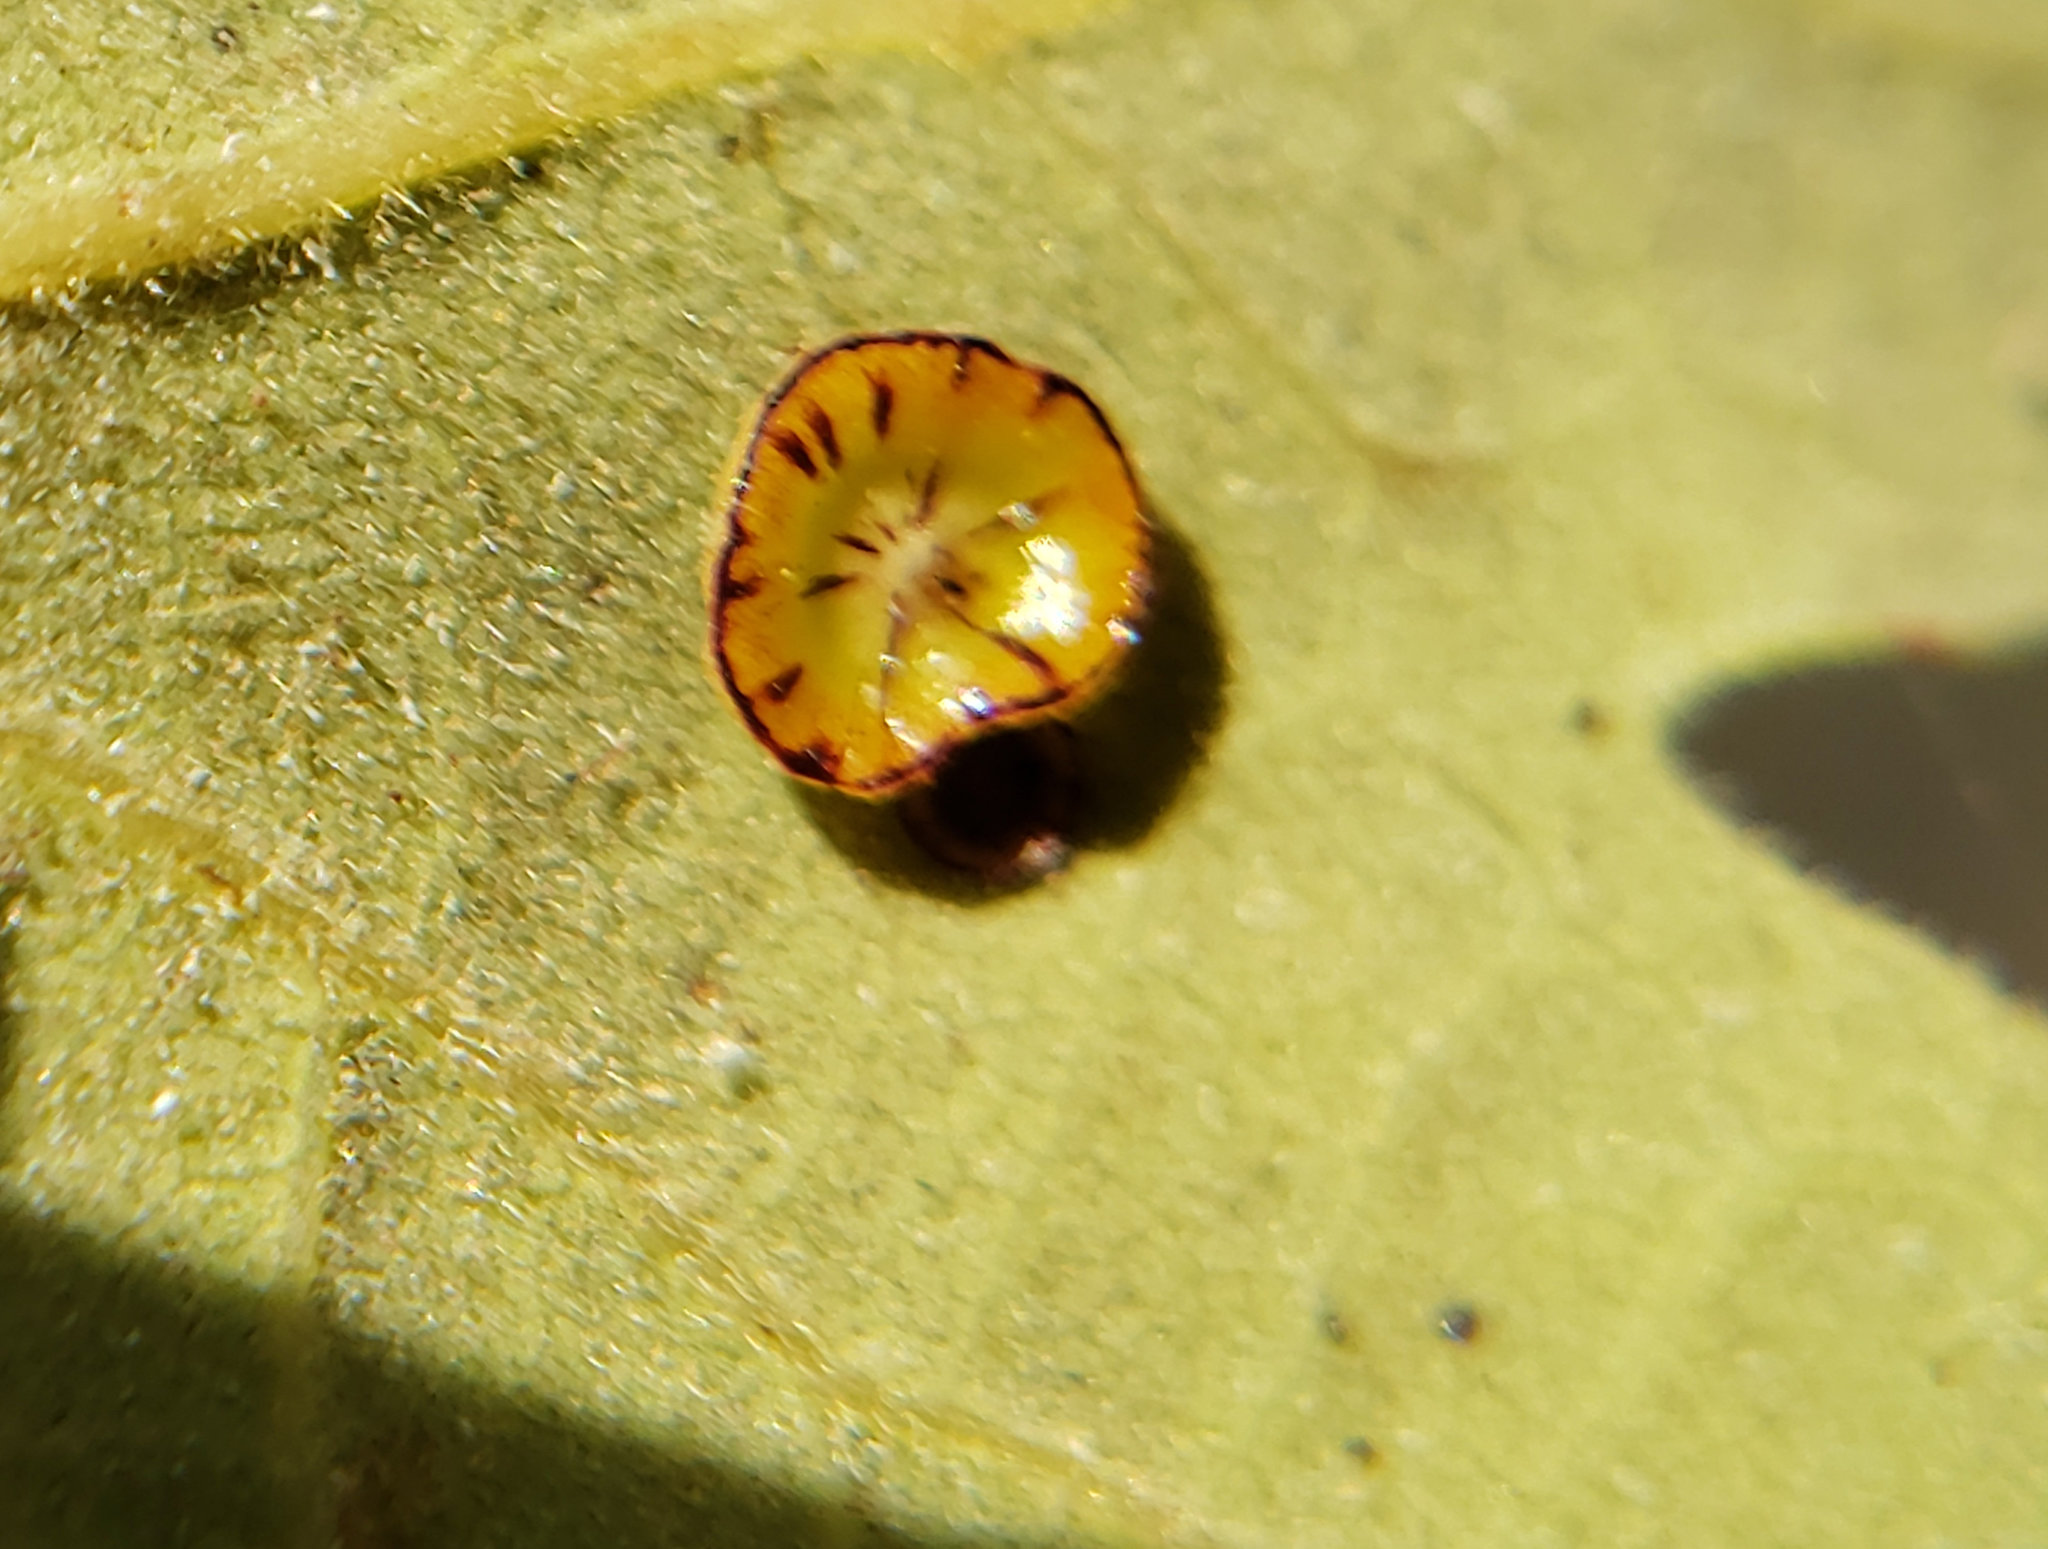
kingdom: Animalia
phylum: Arthropoda
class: Insecta
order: Hymenoptera
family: Cynipidae
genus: Andricus
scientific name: Andricus
